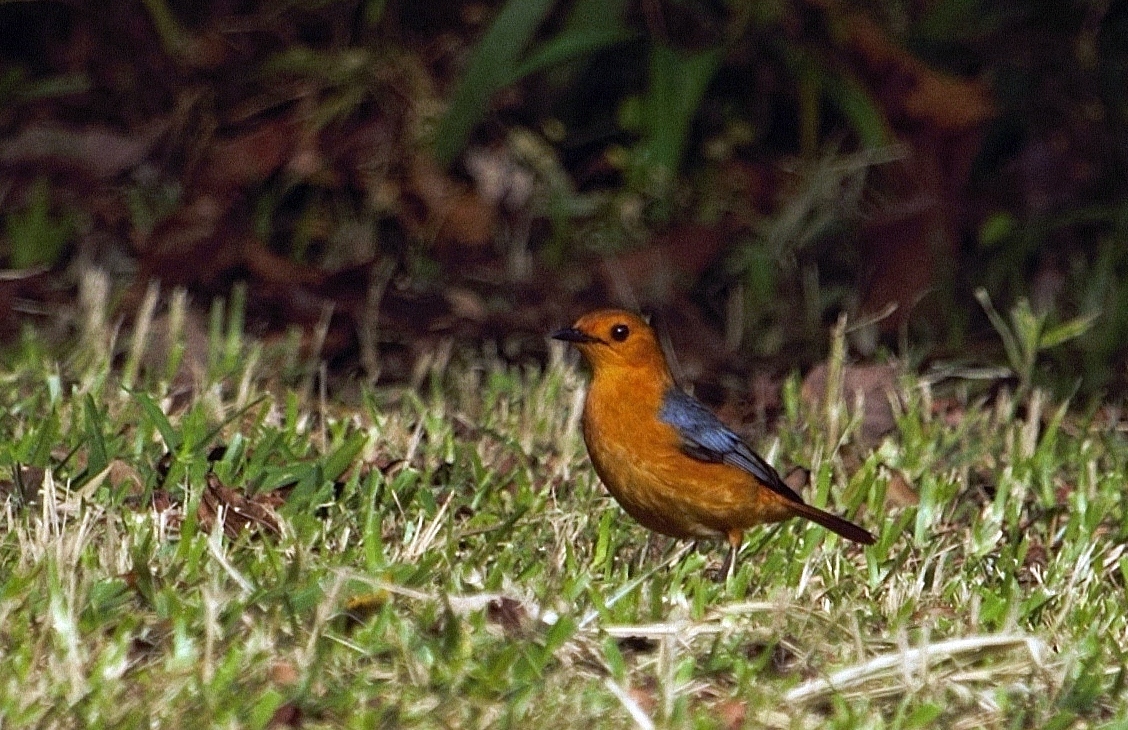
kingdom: Animalia
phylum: Chordata
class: Aves
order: Passeriformes
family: Muscicapidae
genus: Cossypha
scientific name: Cossypha natalensis
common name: Red-capped robin-chat
